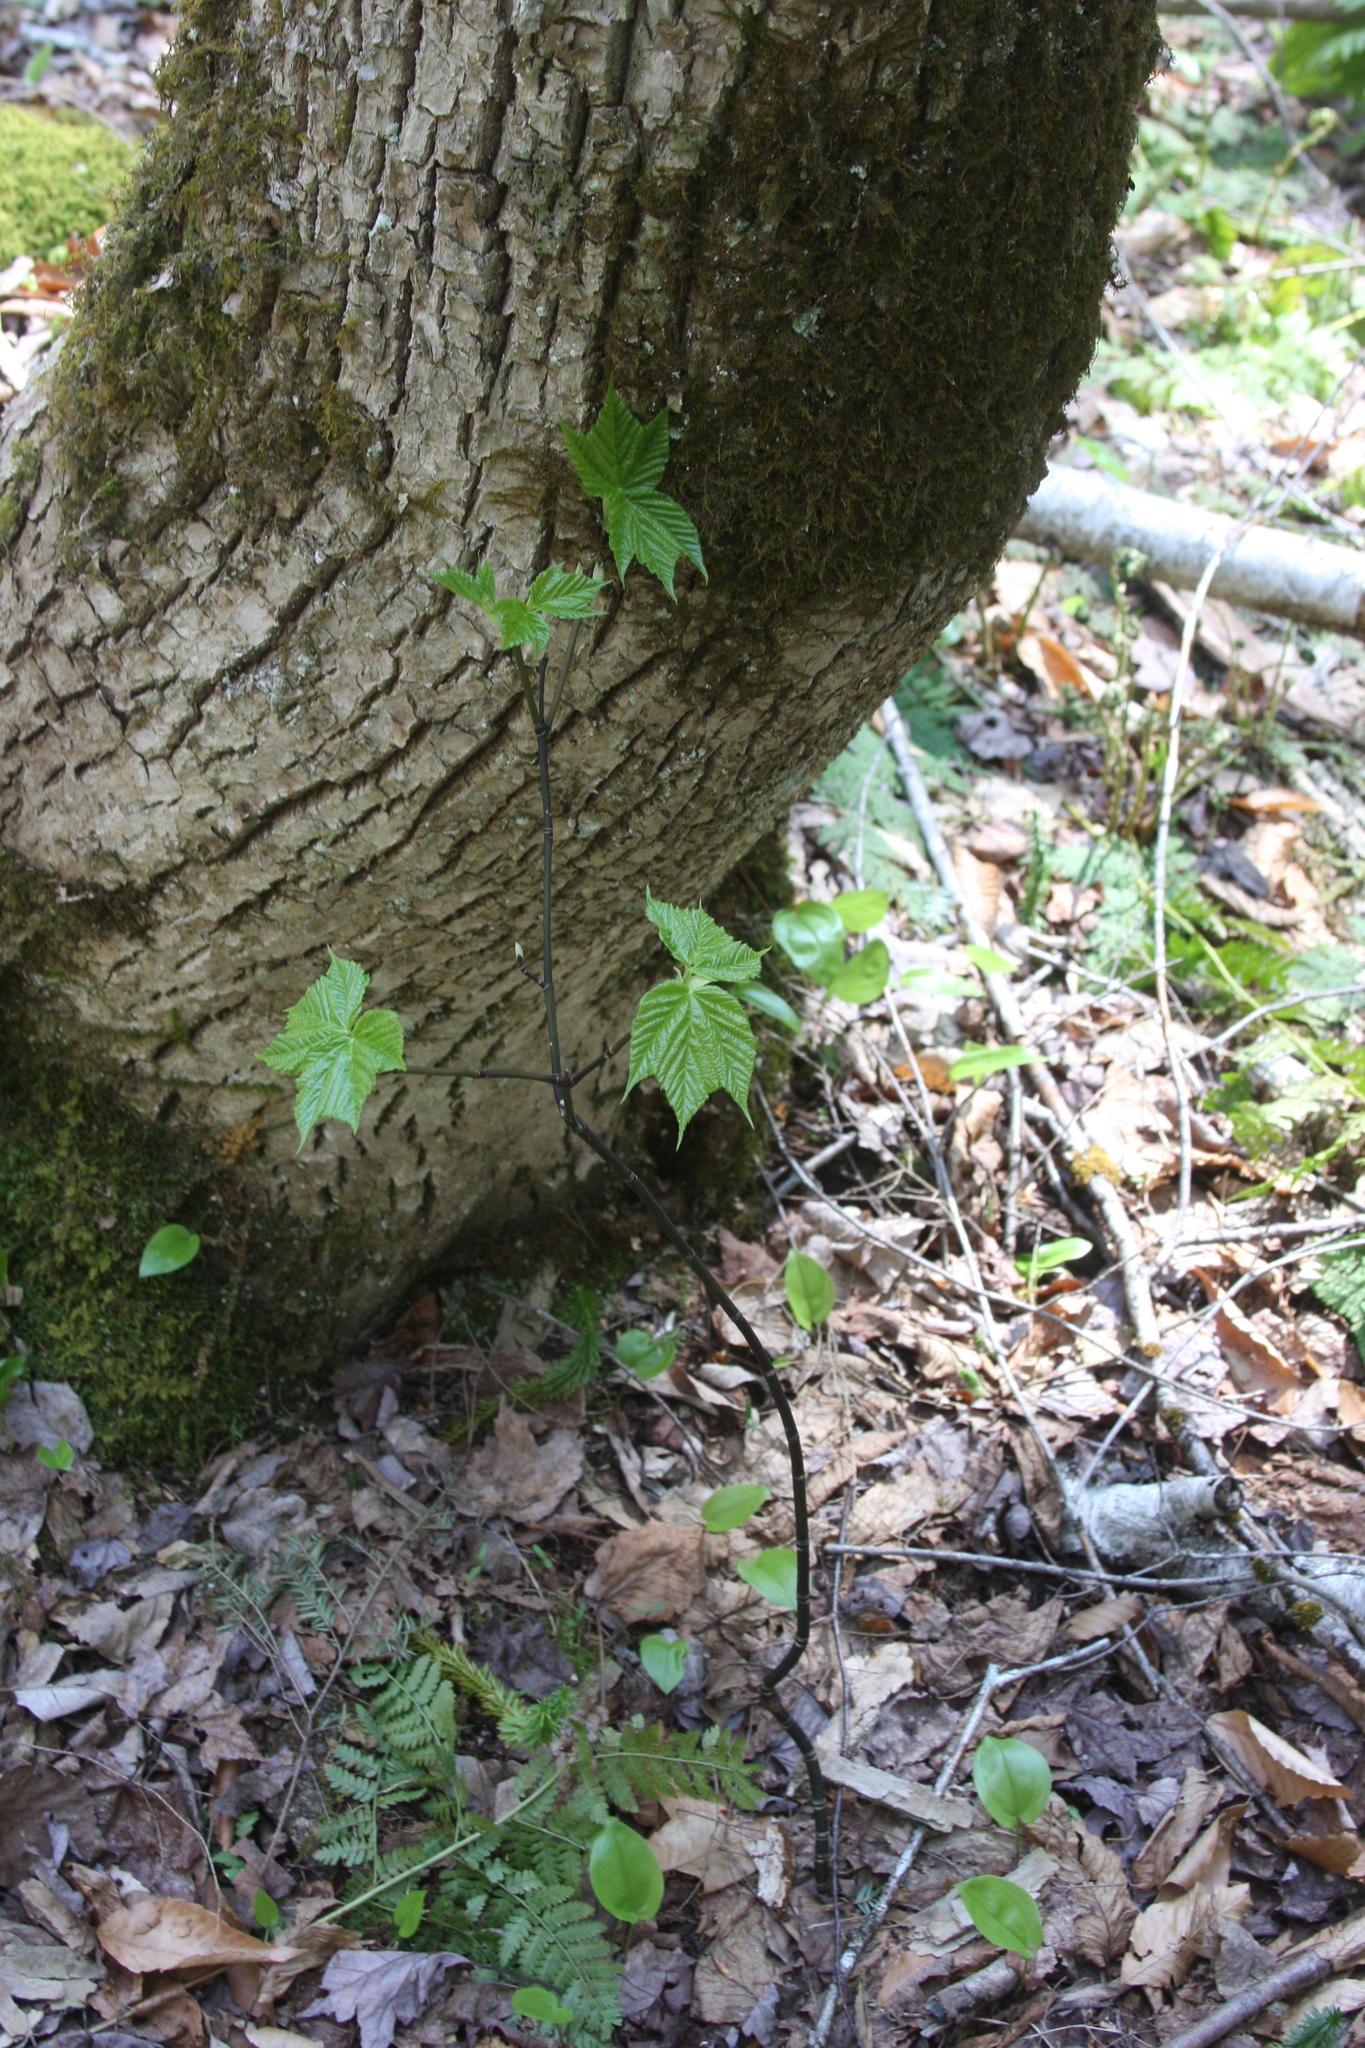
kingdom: Plantae
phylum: Tracheophyta
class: Magnoliopsida
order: Sapindales
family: Sapindaceae
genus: Acer
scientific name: Acer pensylvanicum
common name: Moosewood
